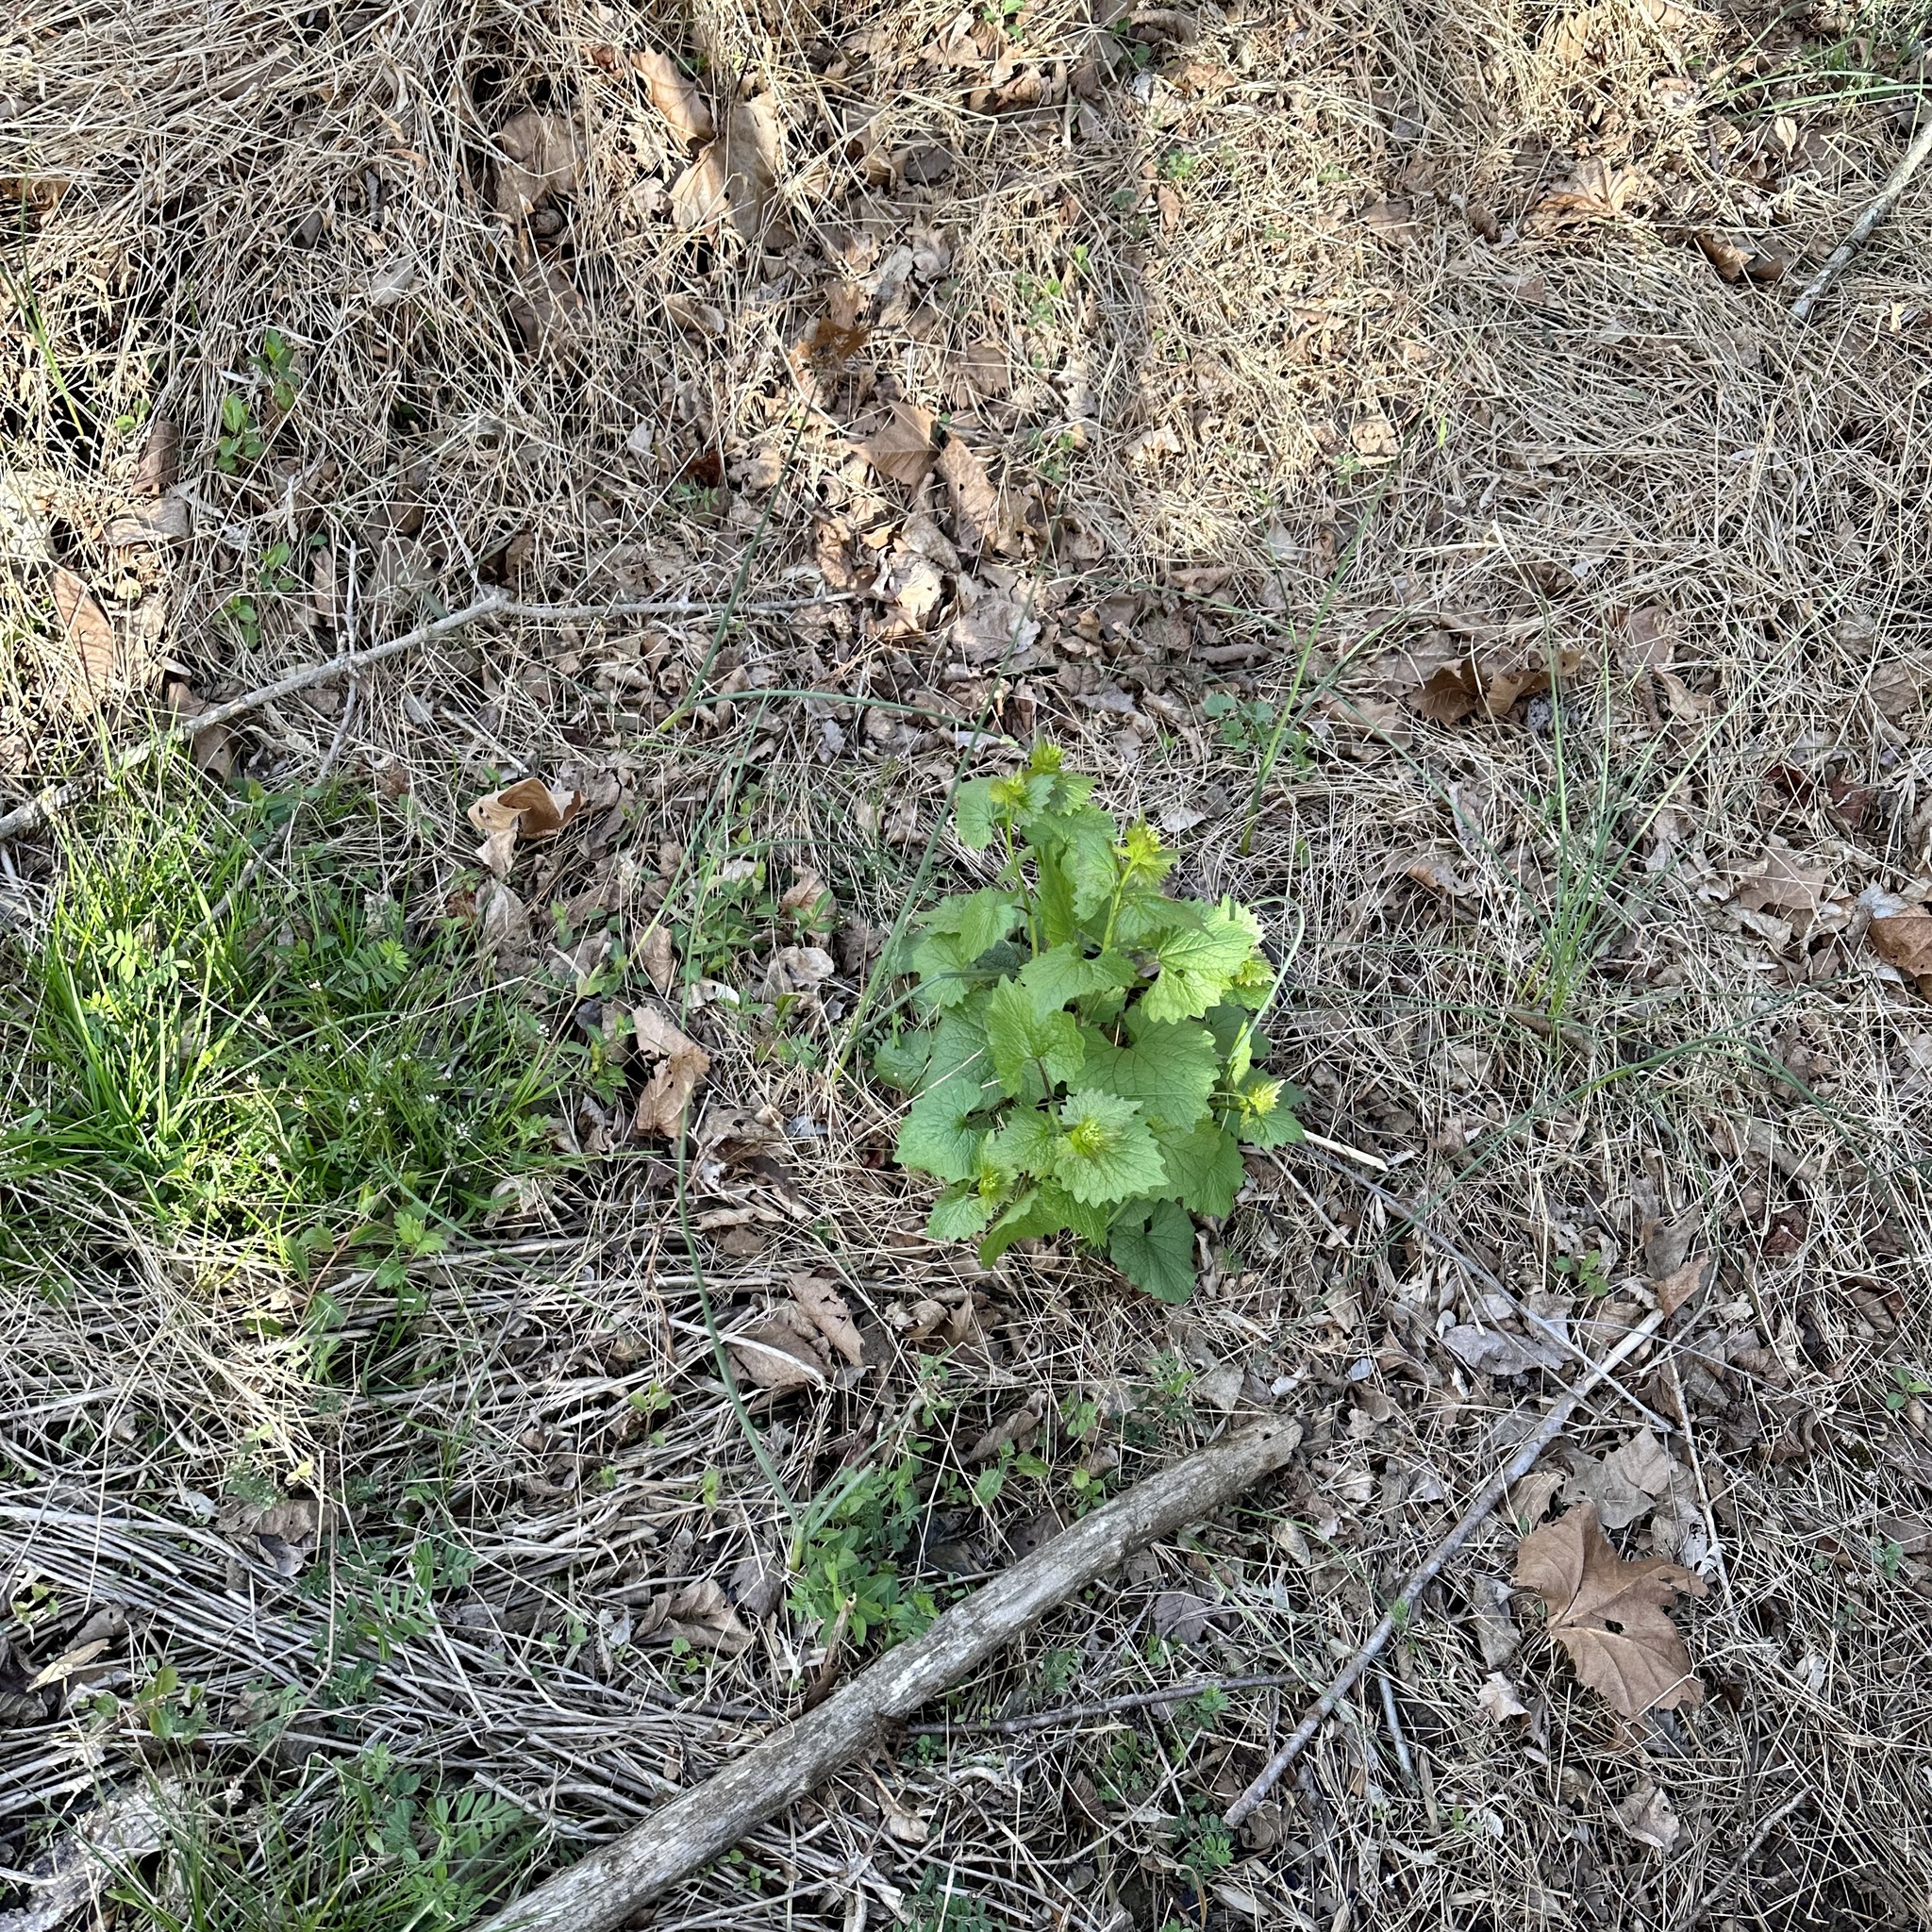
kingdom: Plantae
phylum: Tracheophyta
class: Magnoliopsida
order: Brassicales
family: Brassicaceae
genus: Alliaria
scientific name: Alliaria petiolata
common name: Garlic mustard
